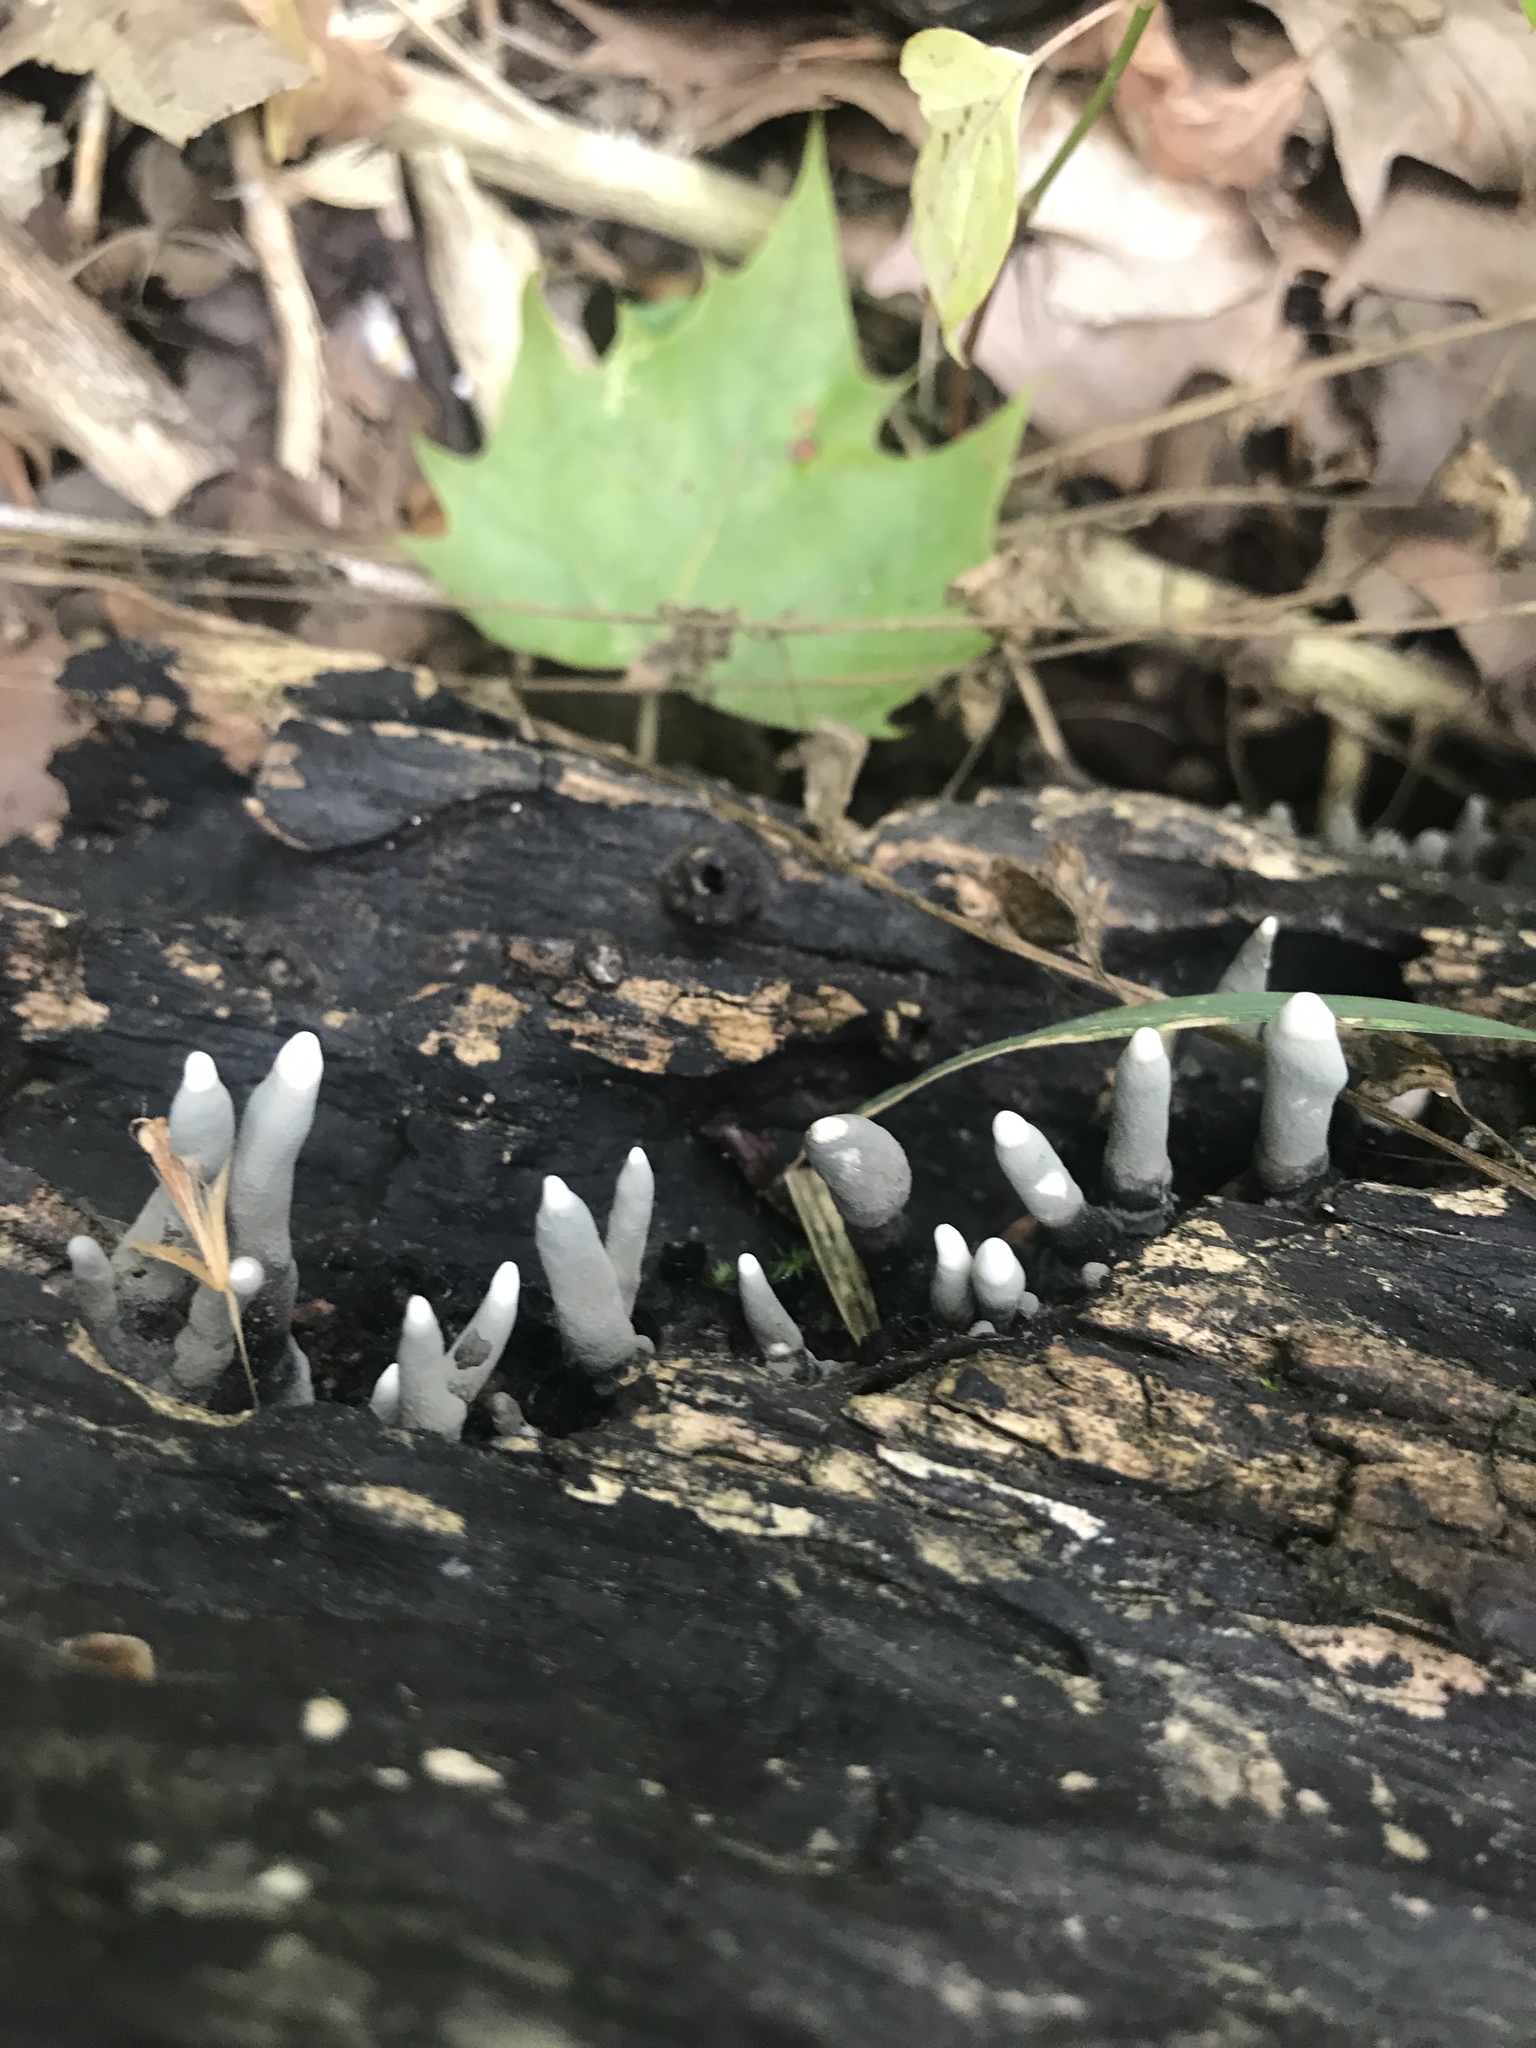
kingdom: Fungi
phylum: Ascomycota
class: Sordariomycetes
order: Xylariales
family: Xylariaceae
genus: Xylaria
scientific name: Xylaria polymorpha
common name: Dead man's fingers
